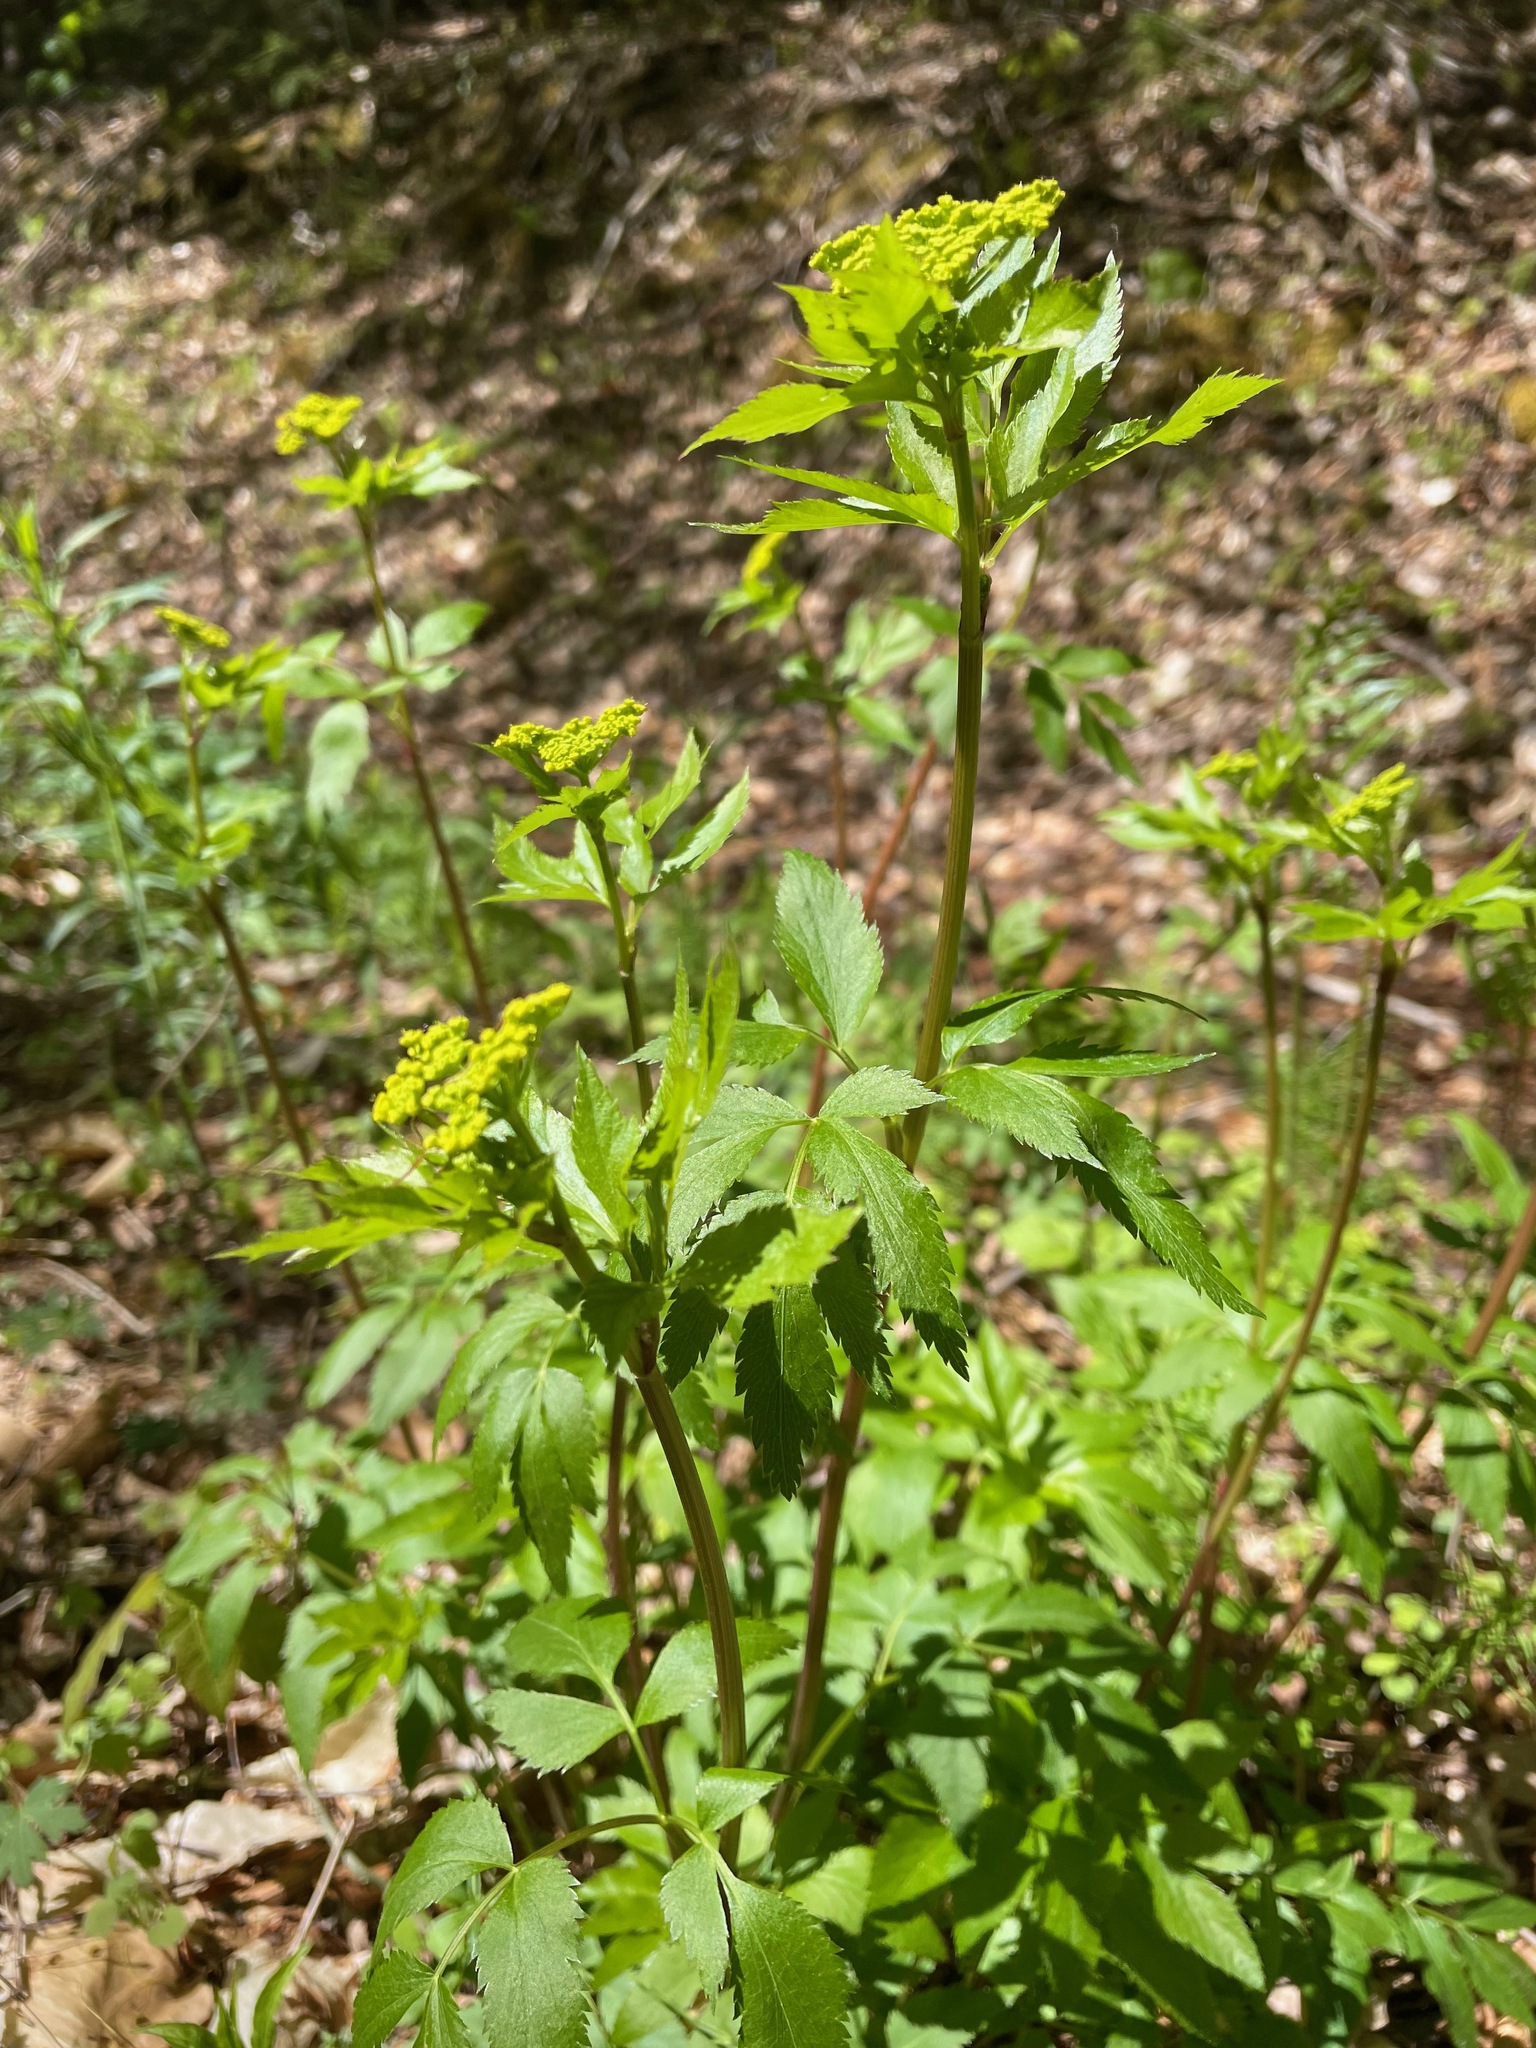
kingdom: Plantae
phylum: Tracheophyta
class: Magnoliopsida
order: Apiales
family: Apiaceae
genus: Zizia
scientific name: Zizia aurea
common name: Golden alexanders
